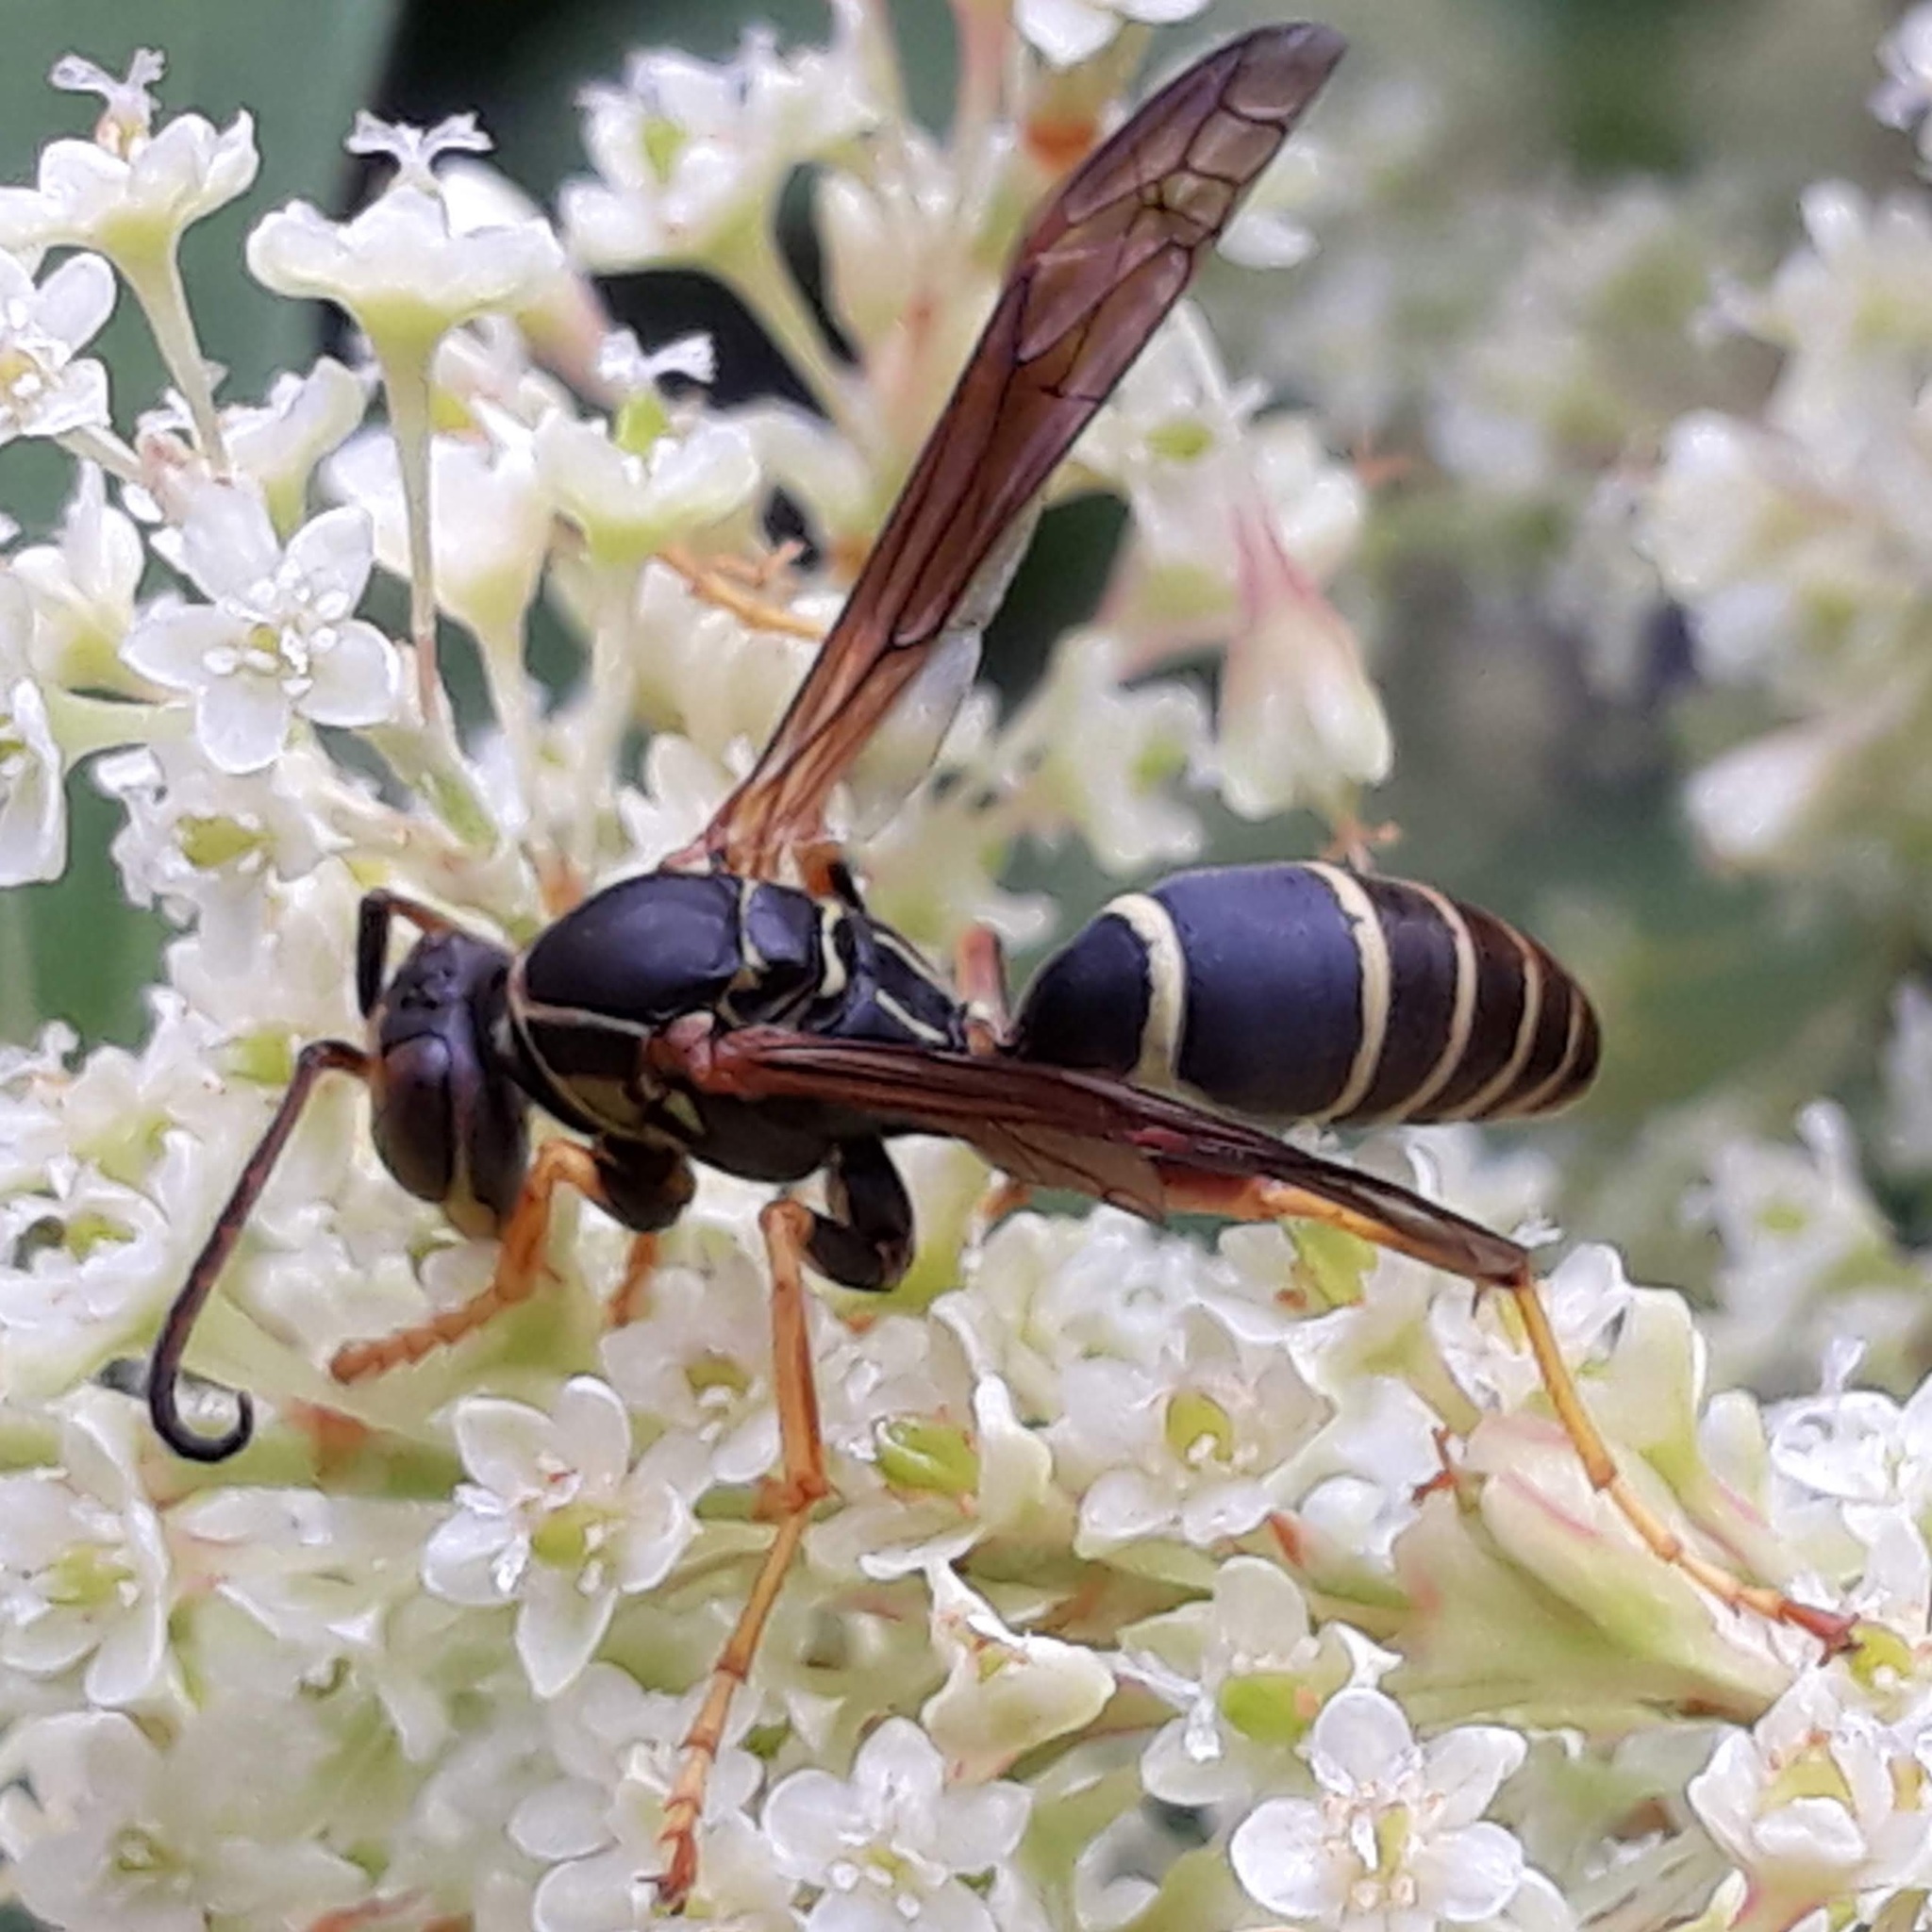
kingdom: Animalia
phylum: Arthropoda
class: Insecta
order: Hymenoptera
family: Eumenidae
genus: Polistes
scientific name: Polistes fuscatus
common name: Dark paper wasp
